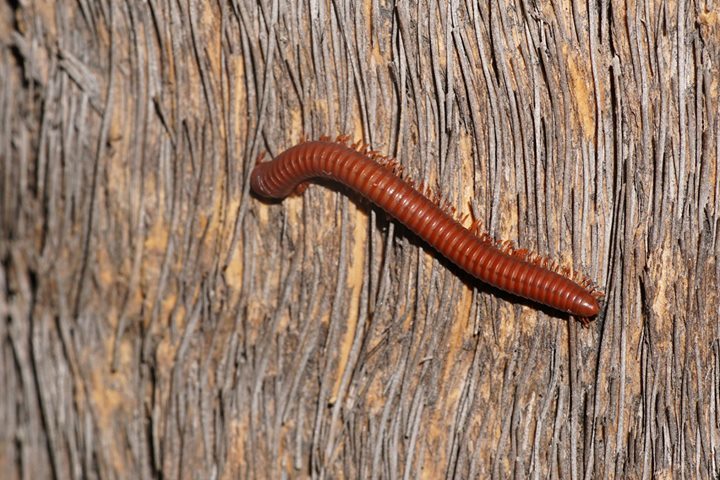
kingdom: Animalia
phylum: Arthropoda
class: Diplopoda
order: Spirobolida
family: Pachybolidae
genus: Trigoniulus
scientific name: Trigoniulus corallinus
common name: Millipede
